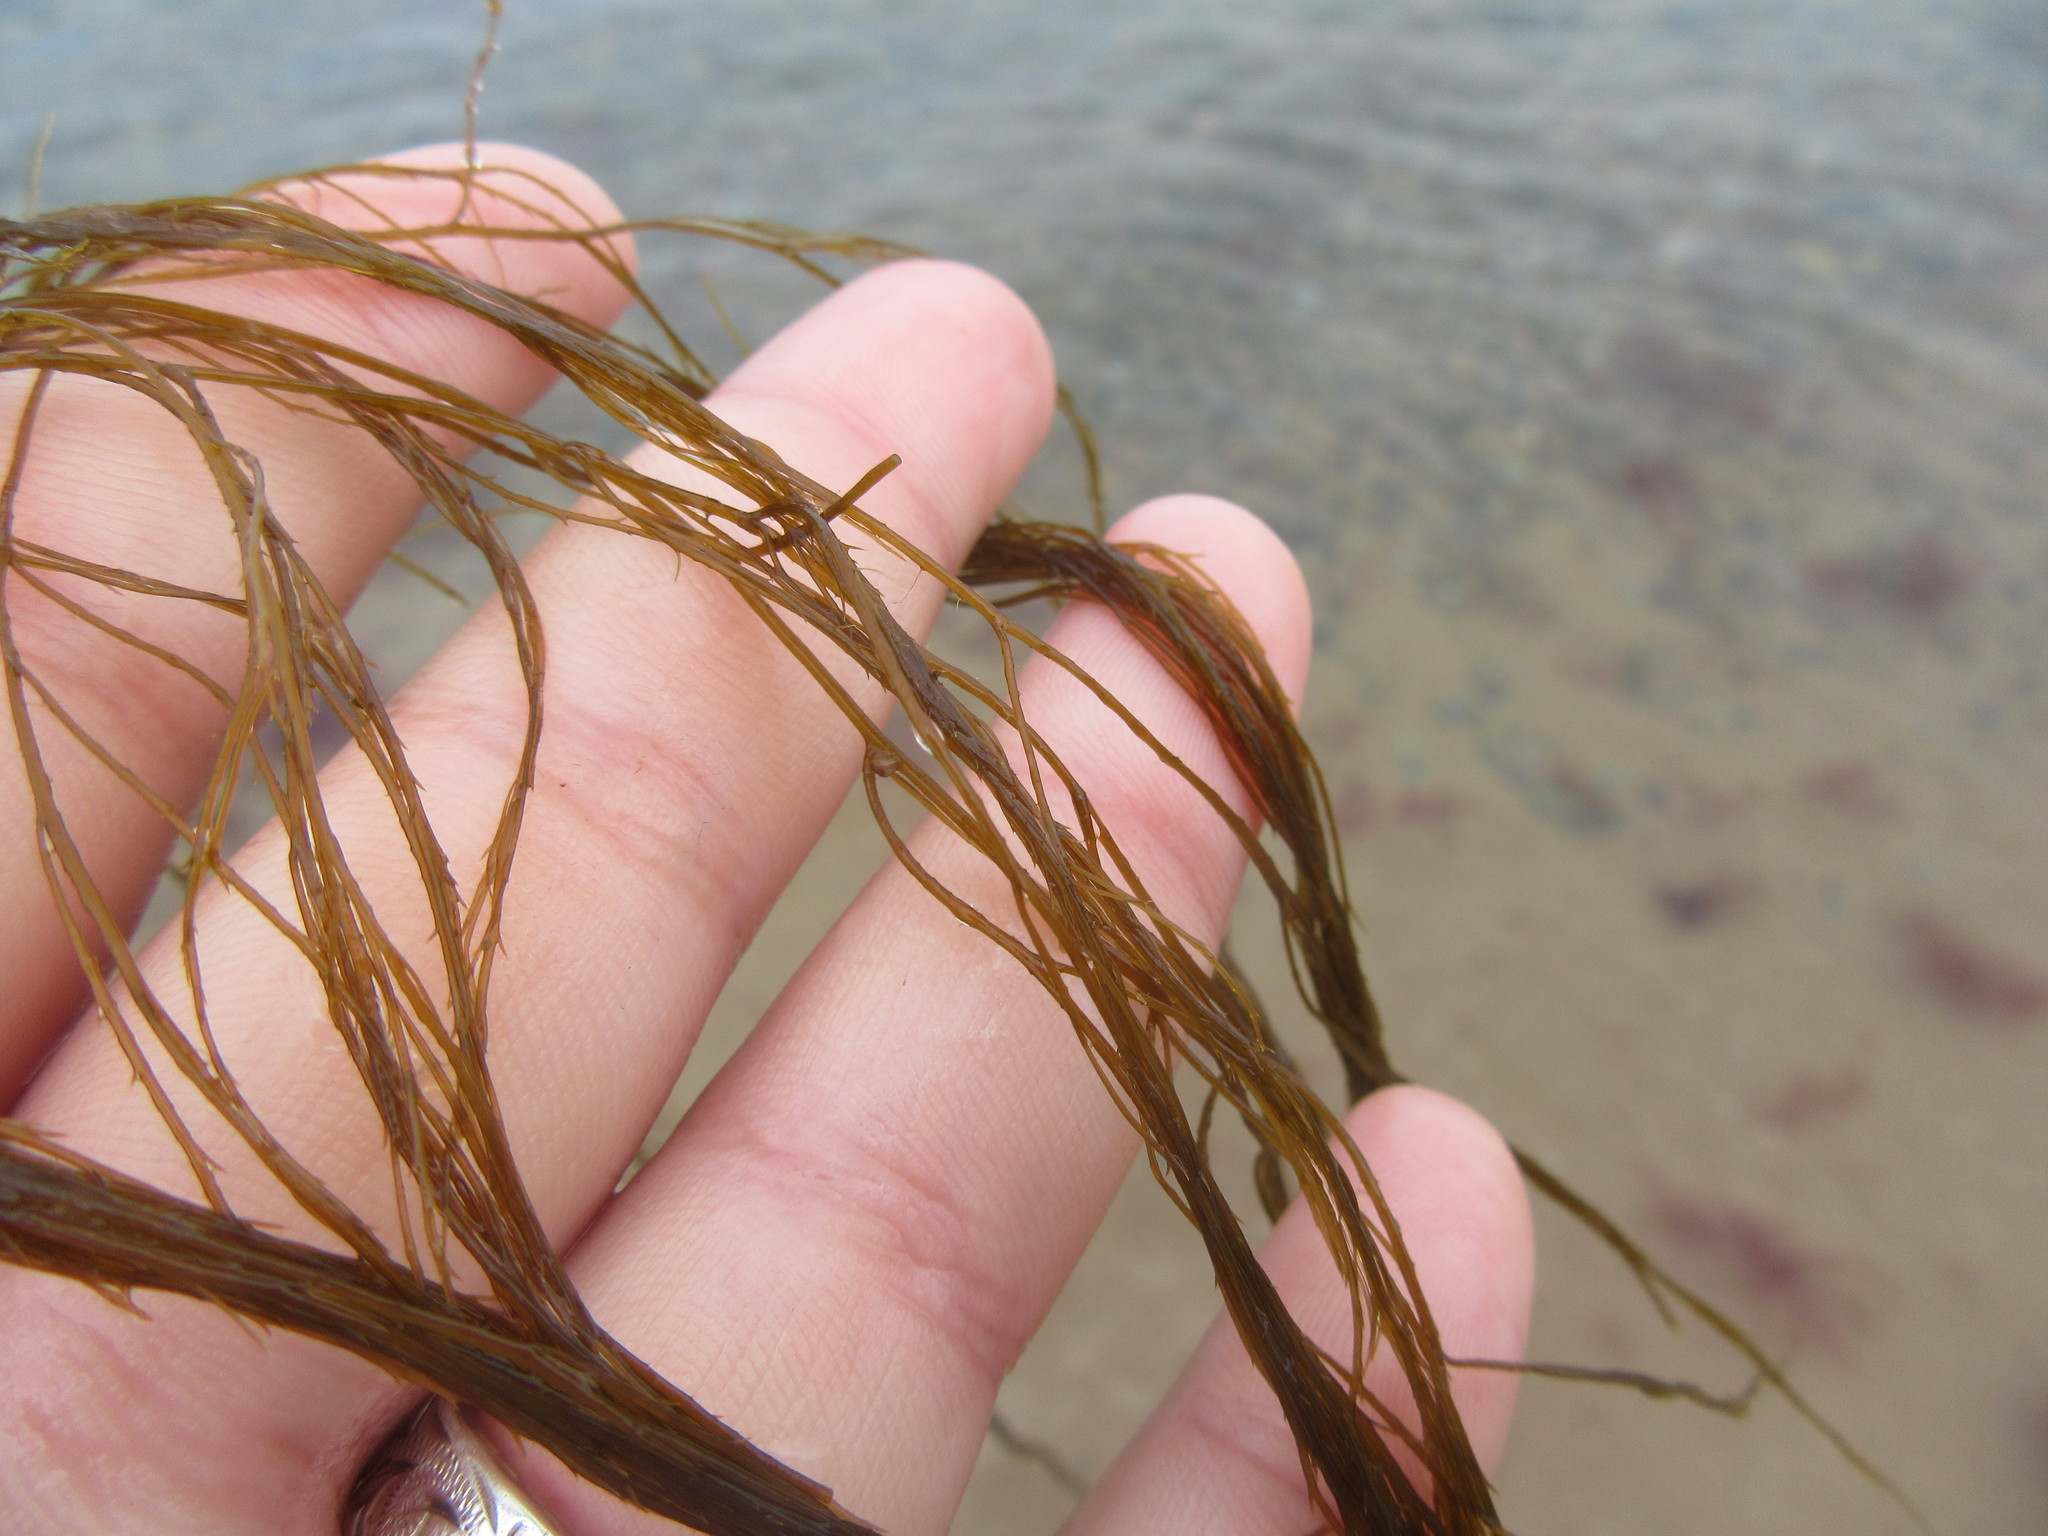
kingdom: Chromista
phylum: Ochrophyta
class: Phaeophyceae
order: Desmarestiales
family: Desmarestiaceae
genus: Desmarestia
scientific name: Desmarestia aculeata
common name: Witch's hair
